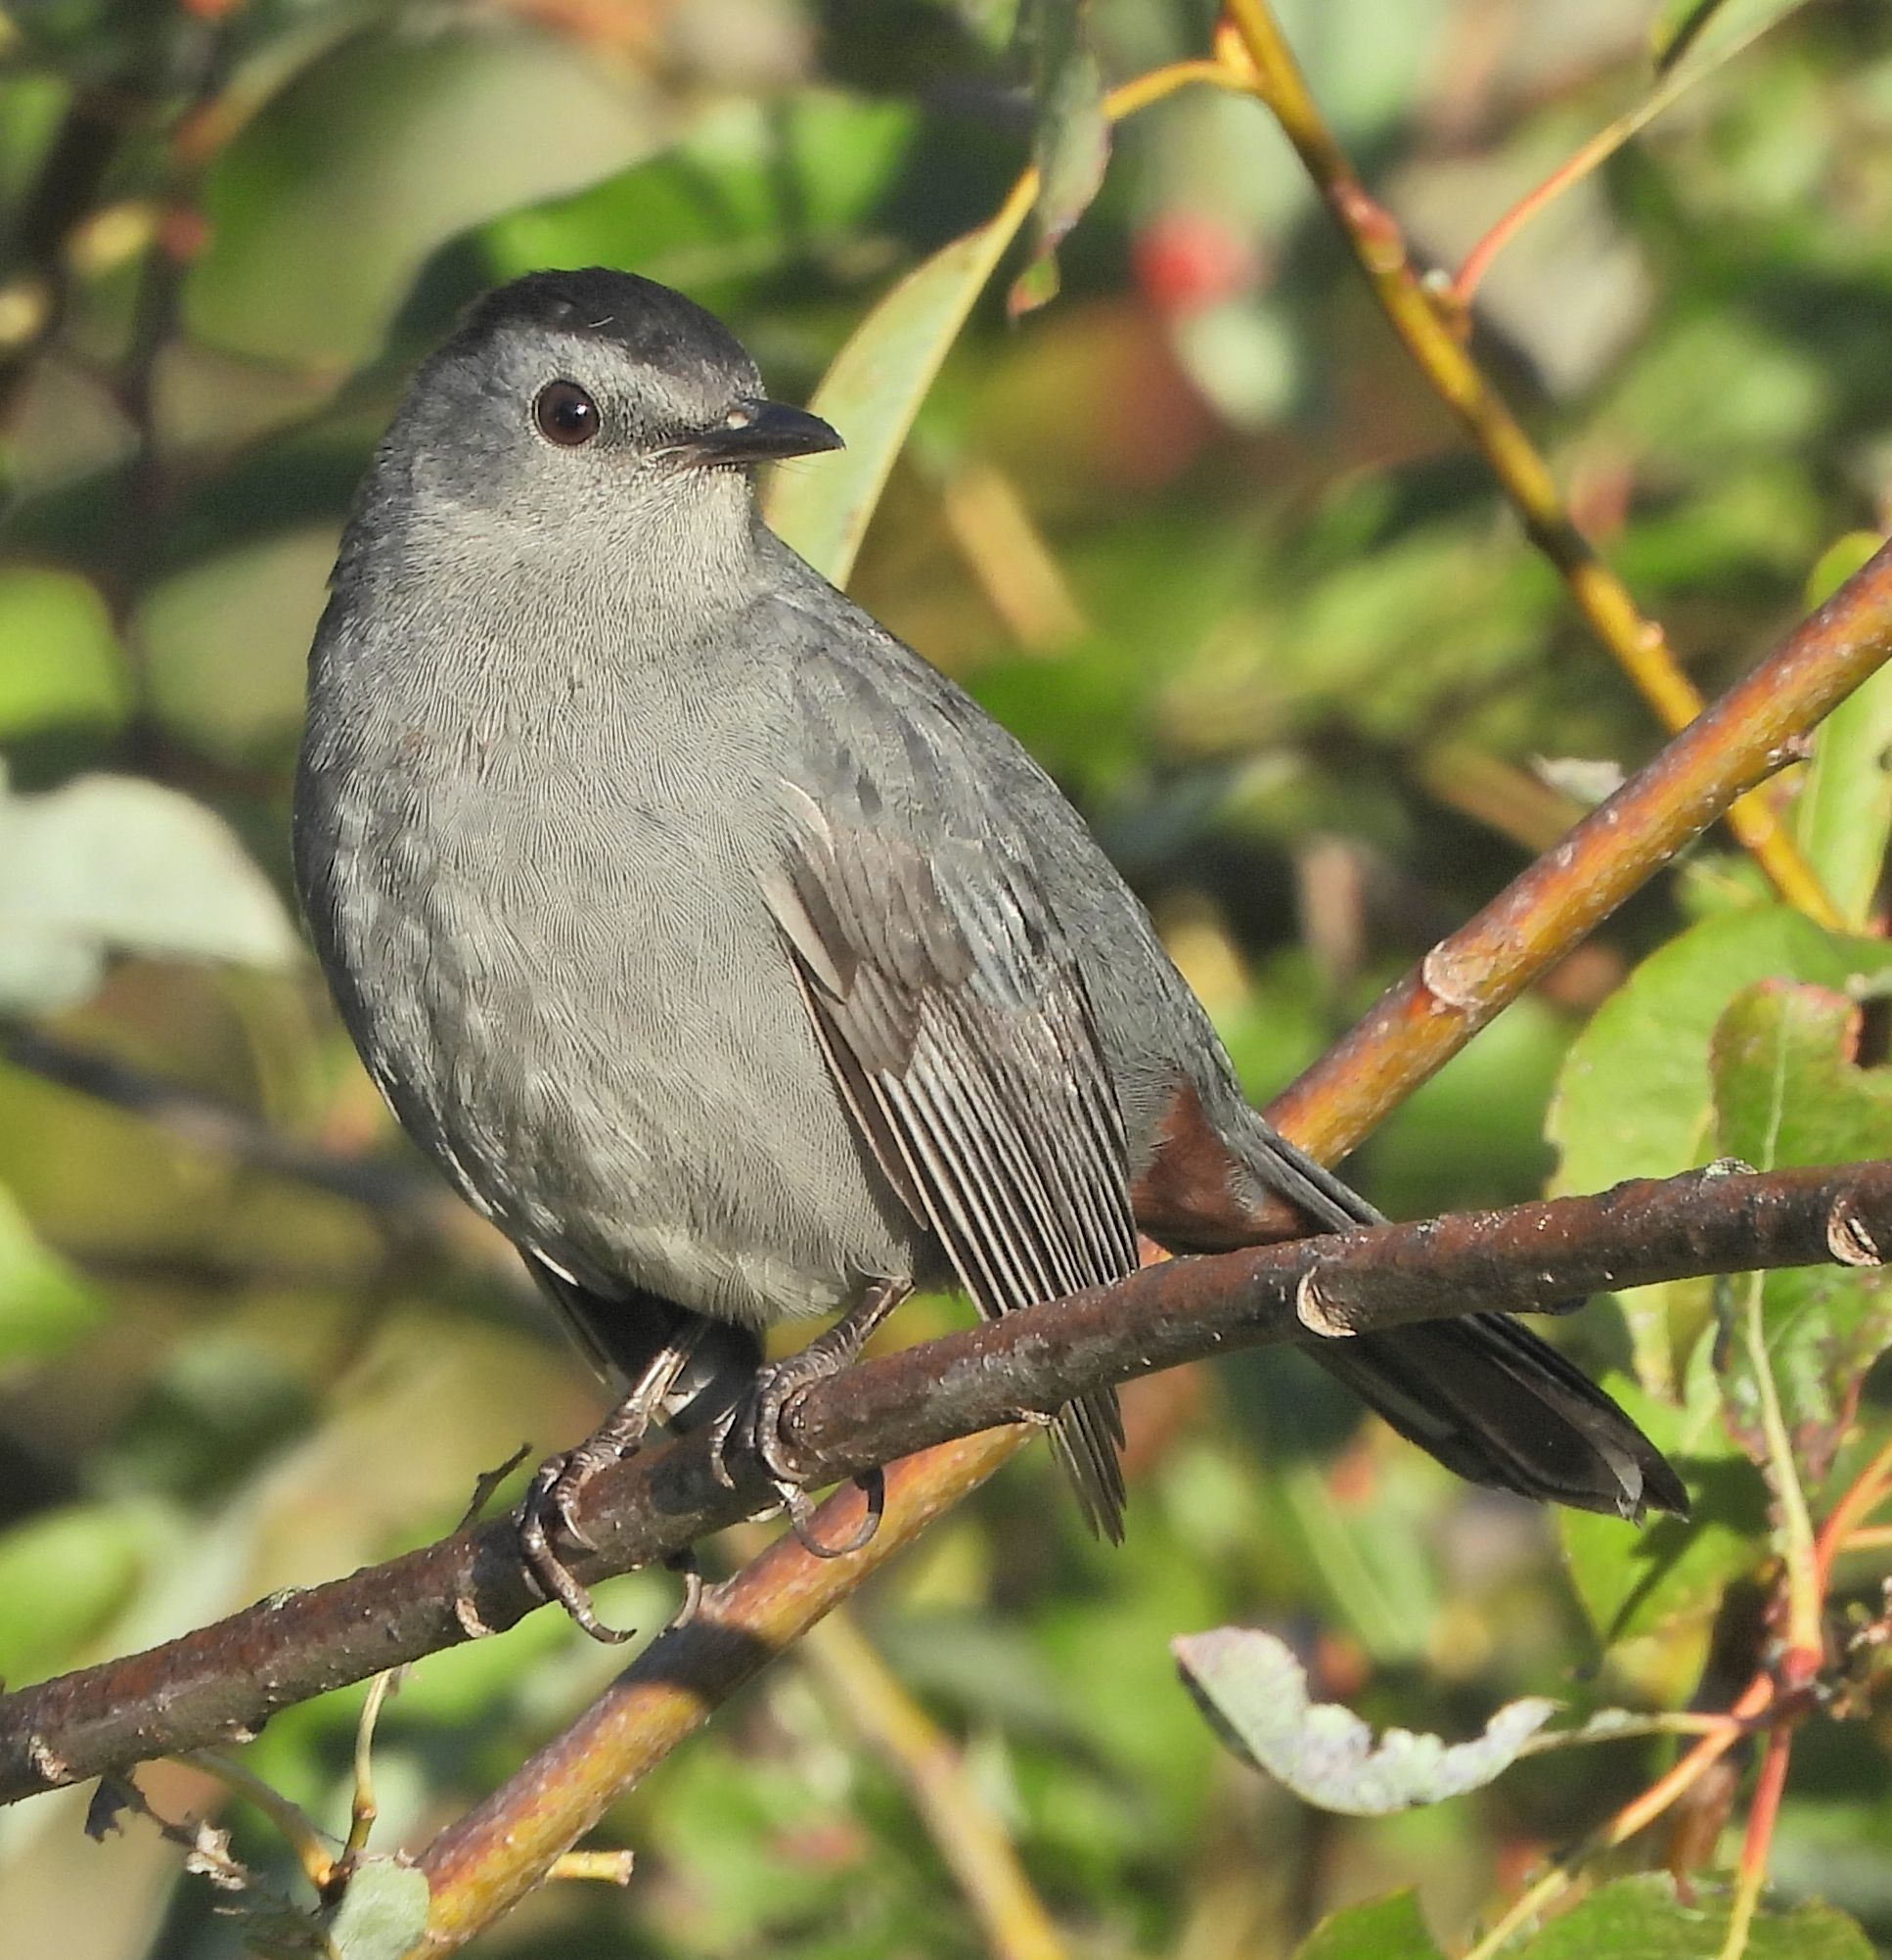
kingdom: Animalia
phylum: Chordata
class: Aves
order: Passeriformes
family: Mimidae
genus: Dumetella
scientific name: Dumetella carolinensis
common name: Gray catbird
